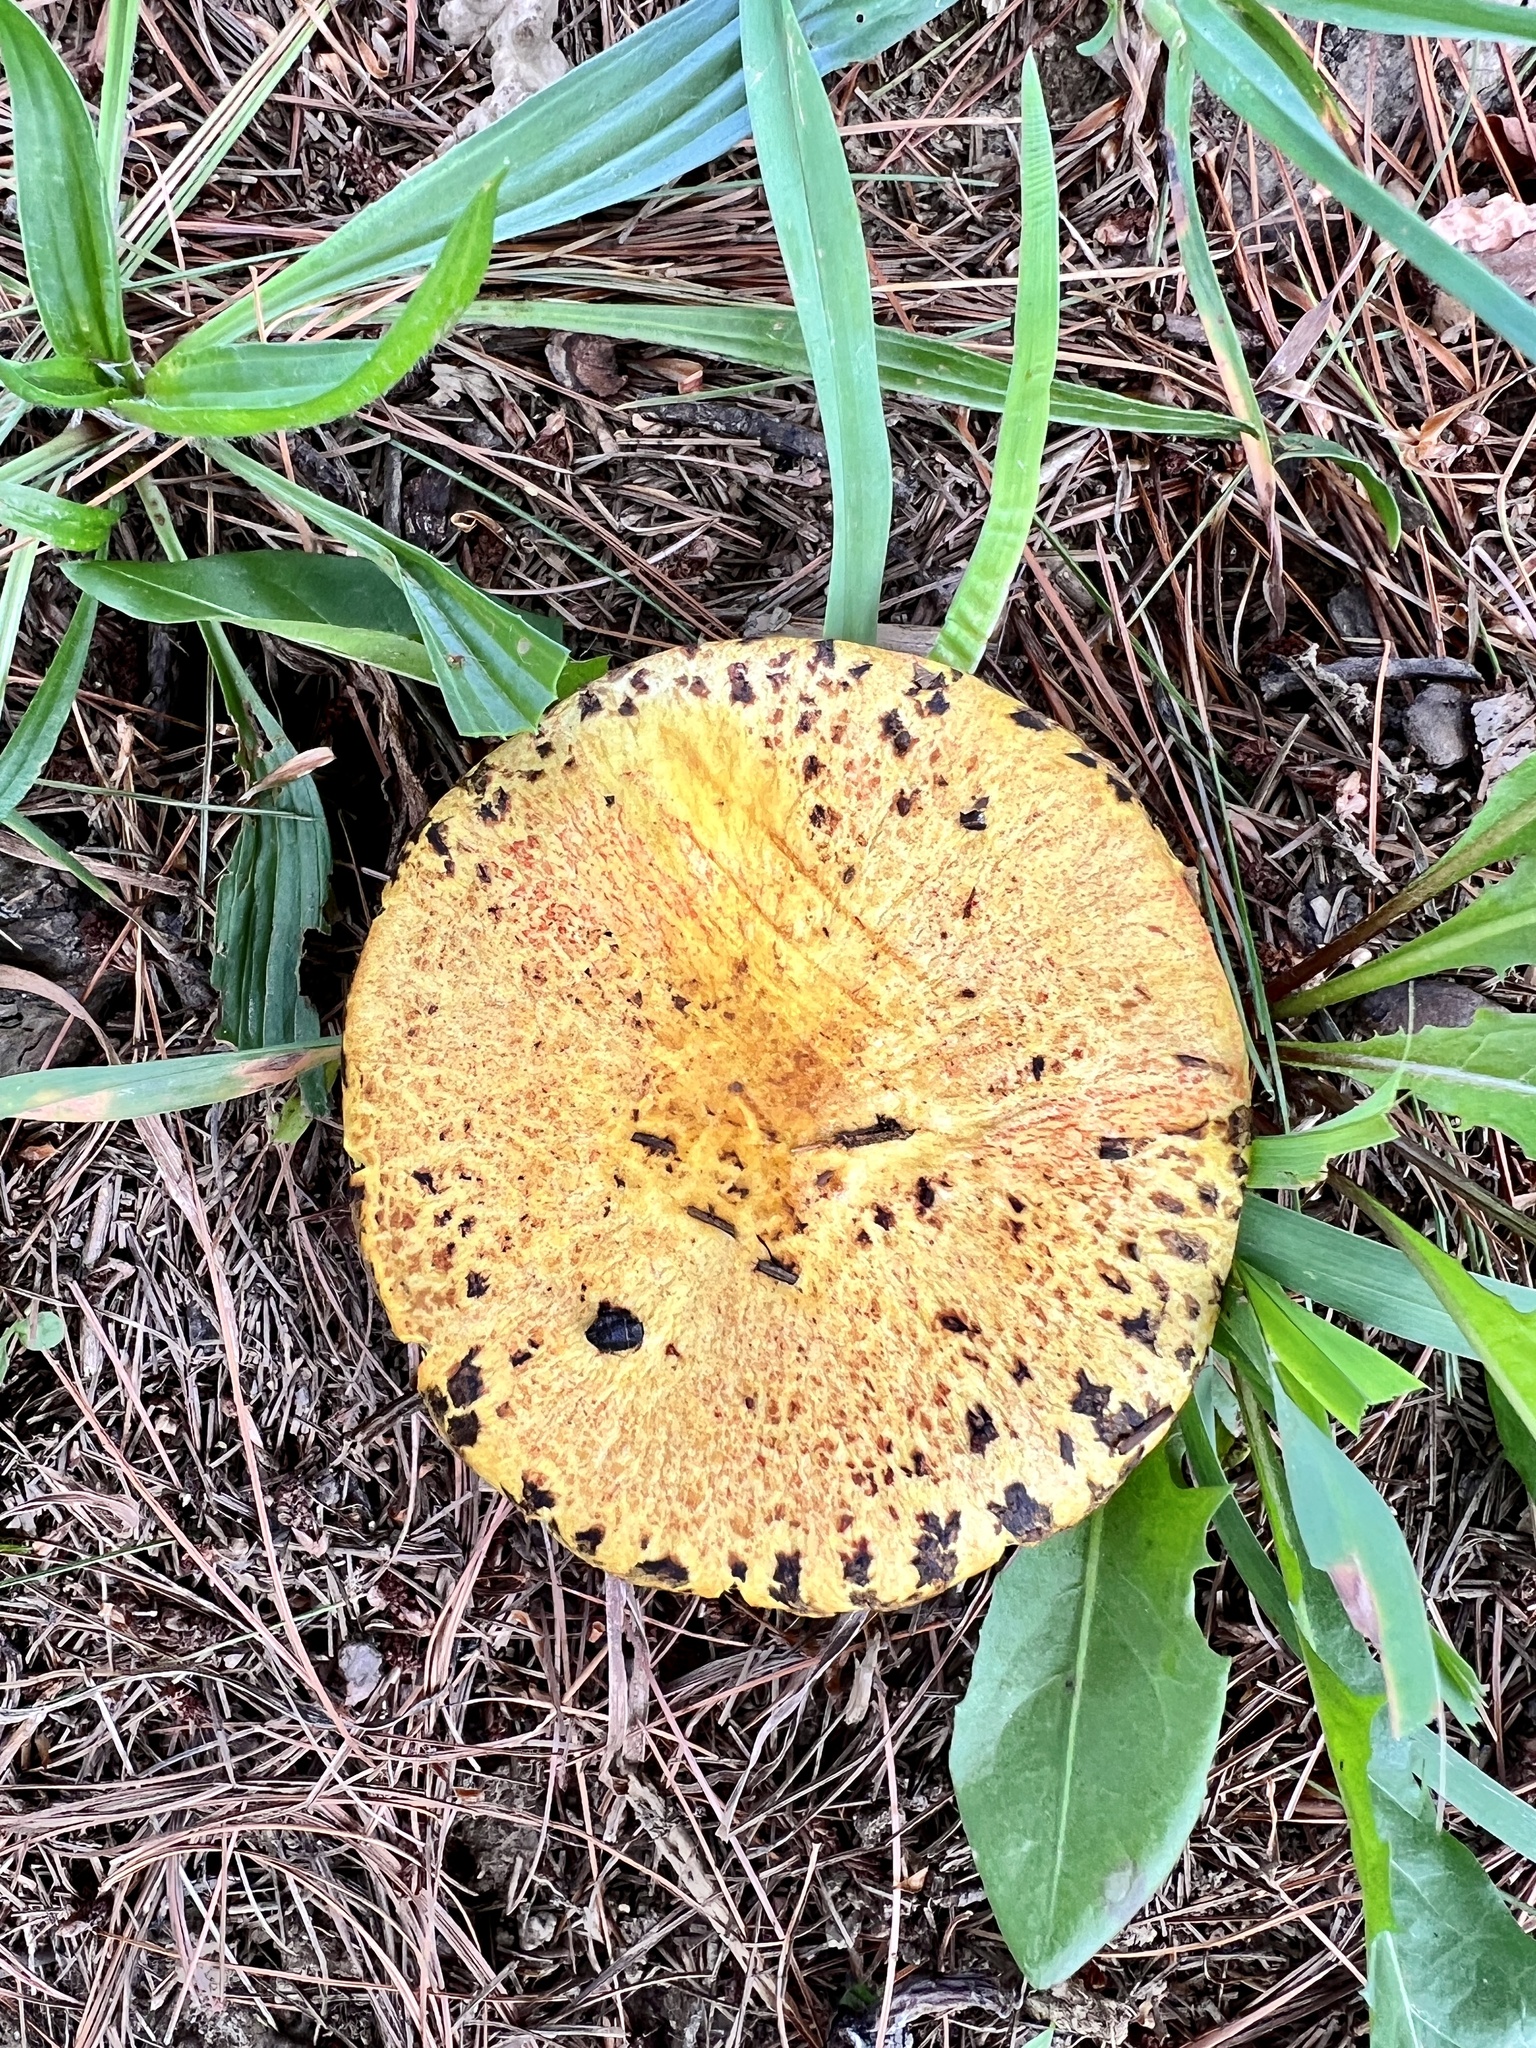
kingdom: Fungi
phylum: Basidiomycota
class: Agaricomycetes
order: Boletales
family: Suillaceae
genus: Suillus
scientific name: Suillus americanus
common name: Chicken fat mushroom
